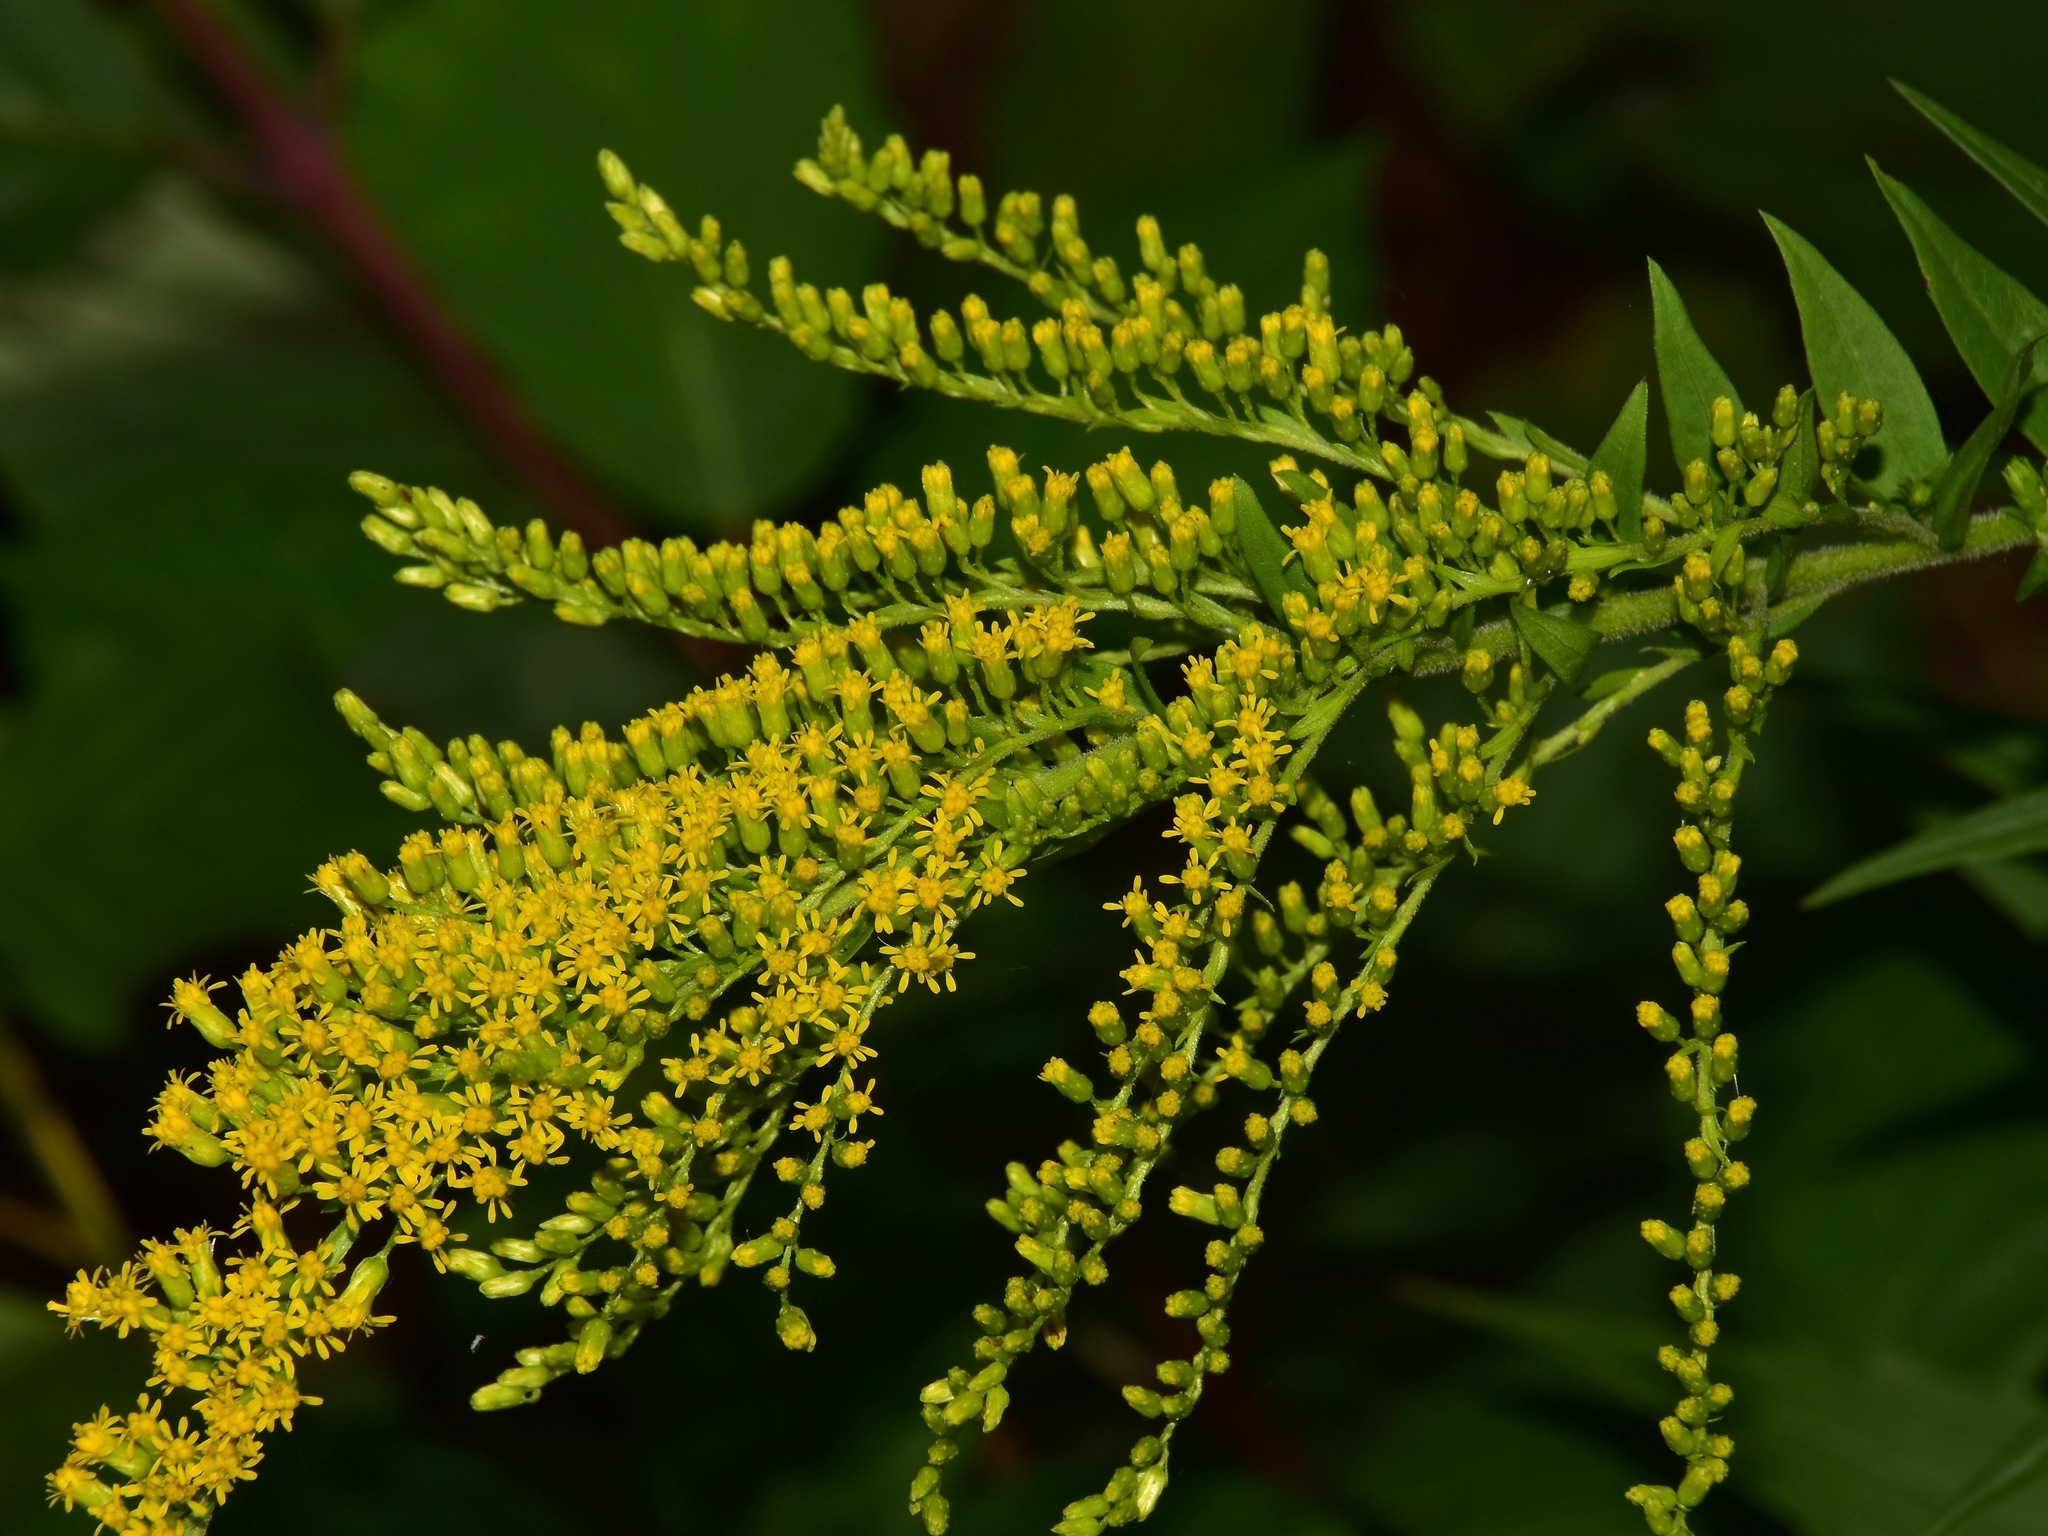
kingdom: Plantae
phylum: Tracheophyta
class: Magnoliopsida
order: Asterales
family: Asteraceae
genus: Solidago
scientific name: Solidago canadensis
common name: Canada goldenrod
